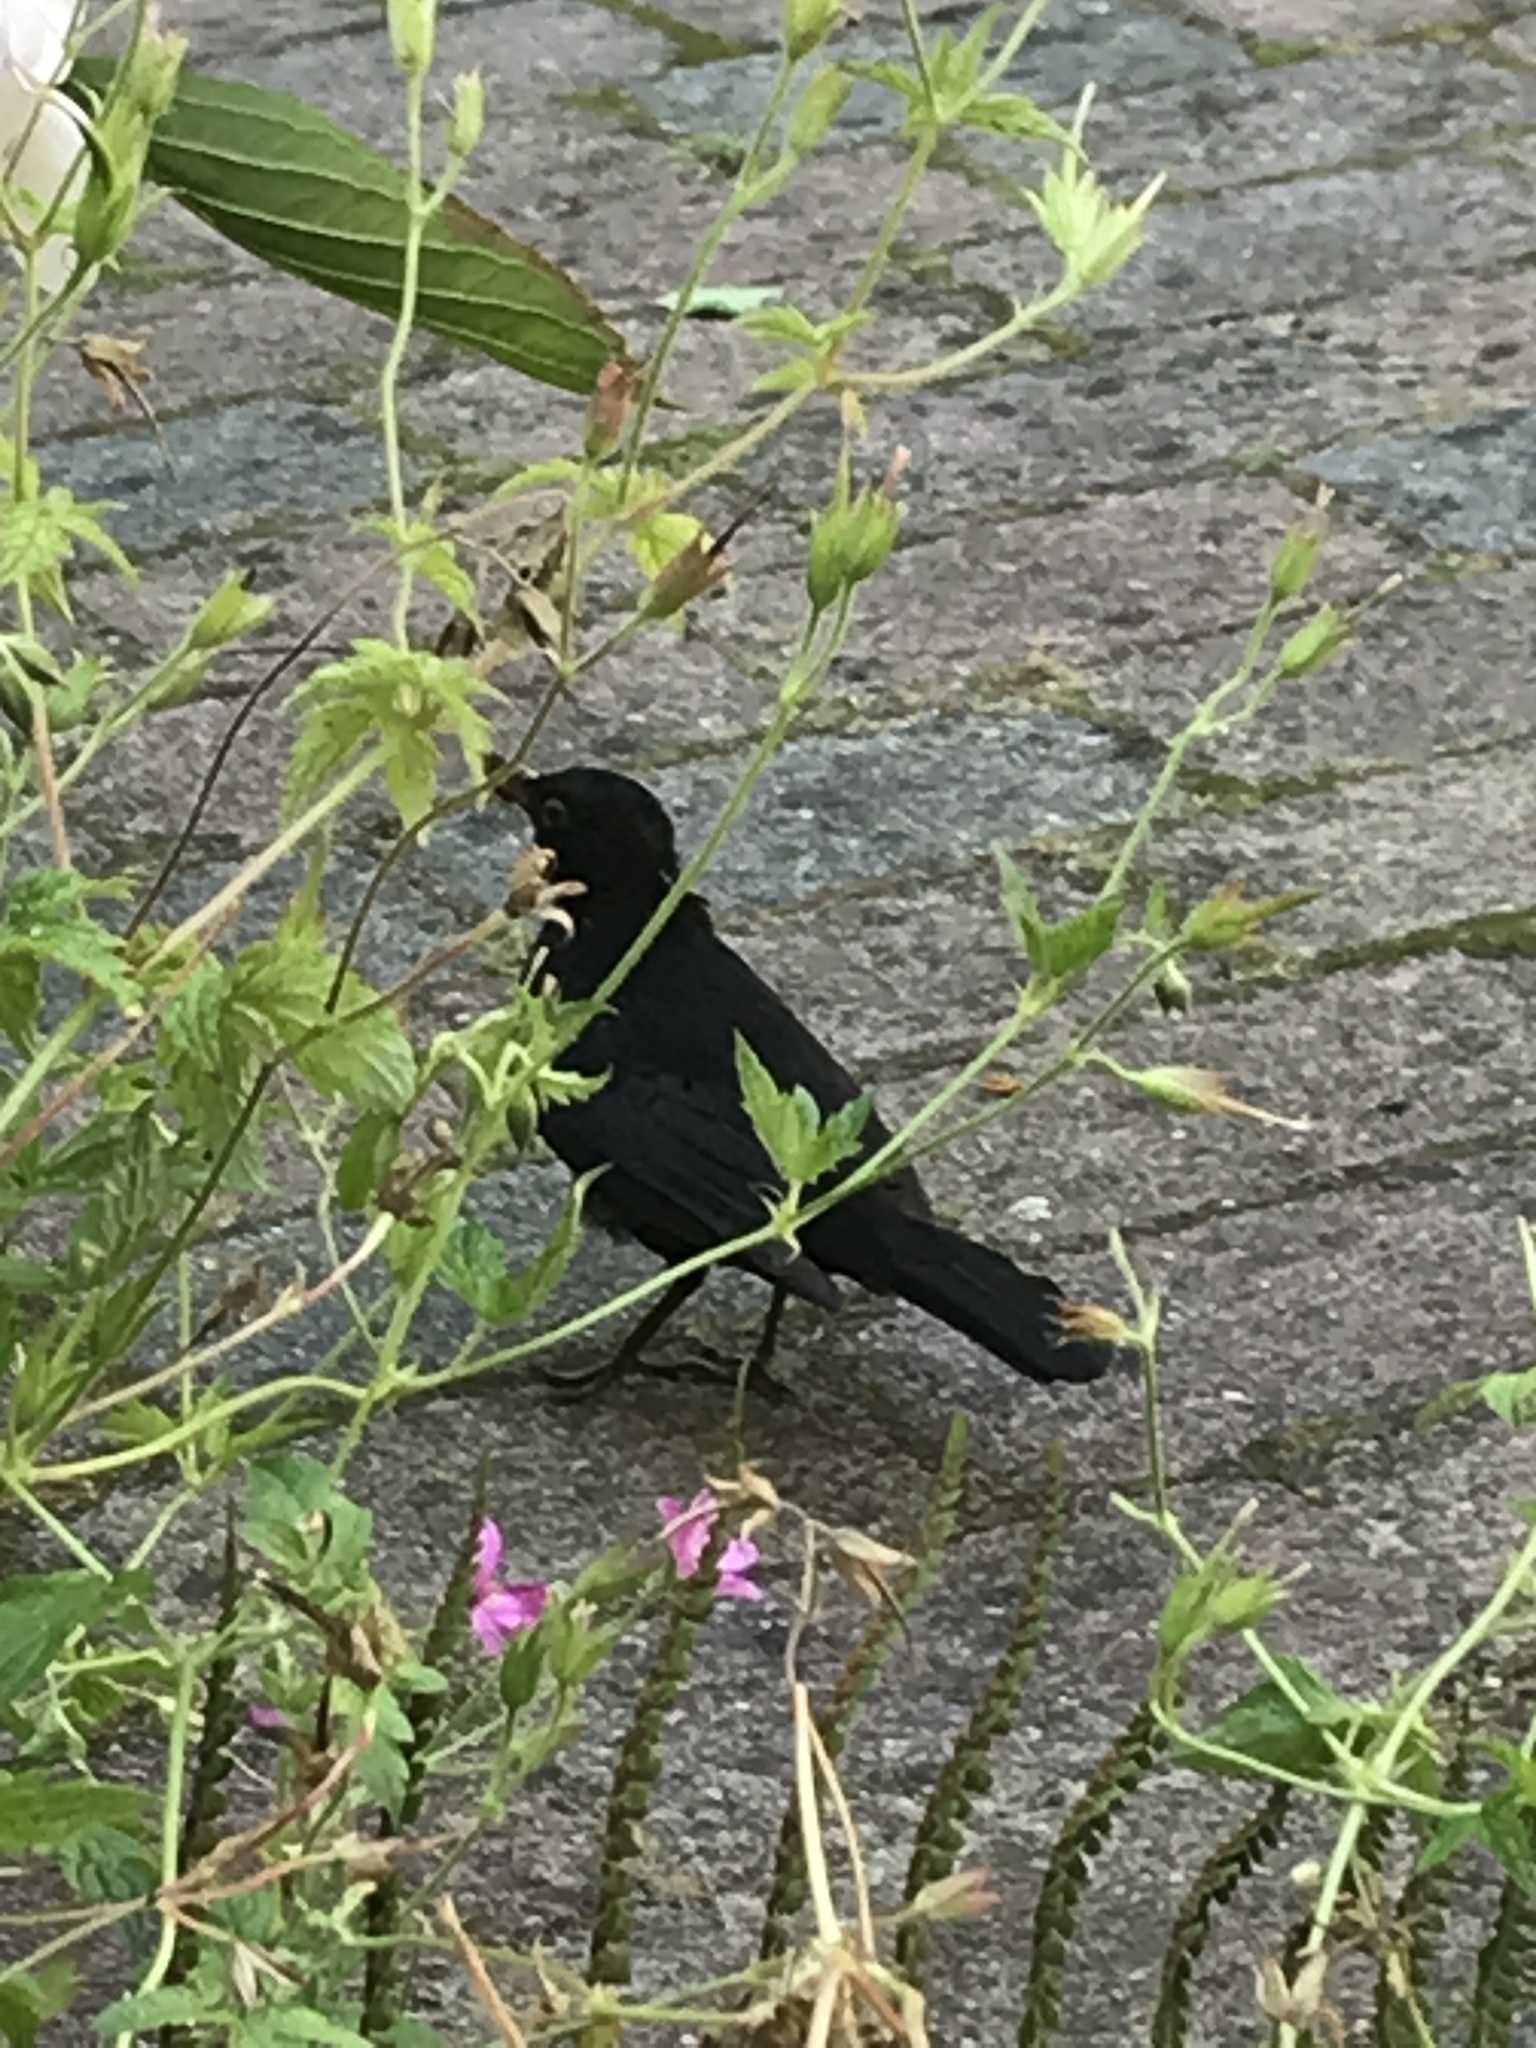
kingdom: Animalia
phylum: Chordata
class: Aves
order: Passeriformes
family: Turdidae
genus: Turdus
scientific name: Turdus merula
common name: Common blackbird
